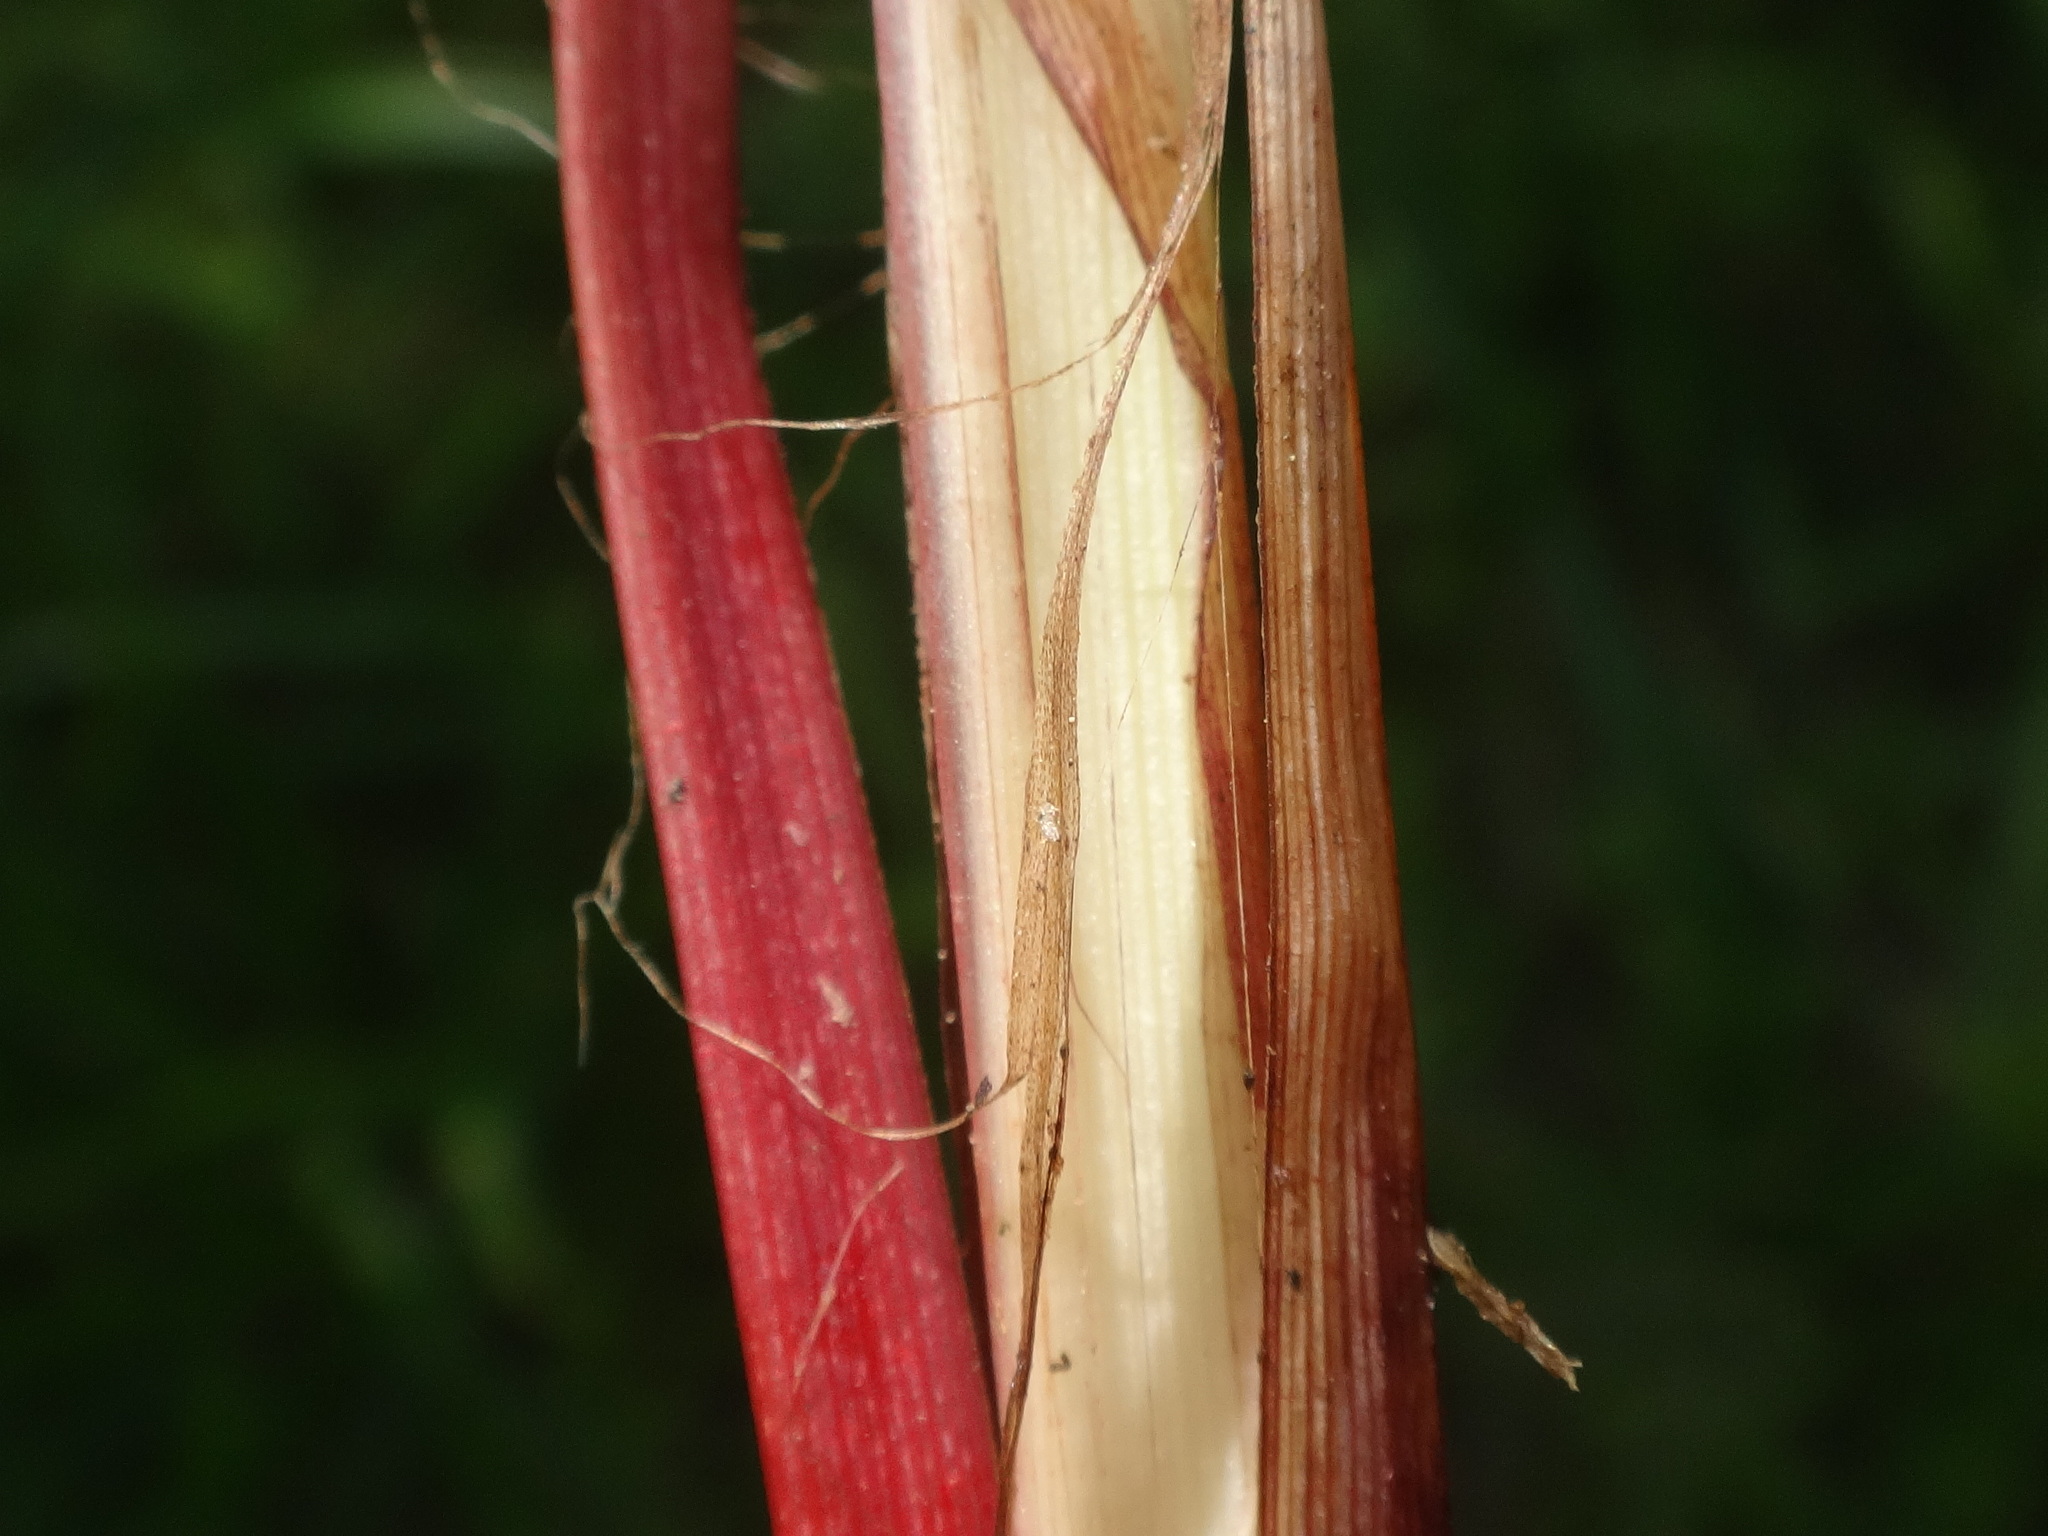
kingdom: Plantae
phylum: Tracheophyta
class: Liliopsida
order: Poales
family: Cyperaceae
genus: Carex
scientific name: Carex acutiformis
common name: Lesser pond-sedge
